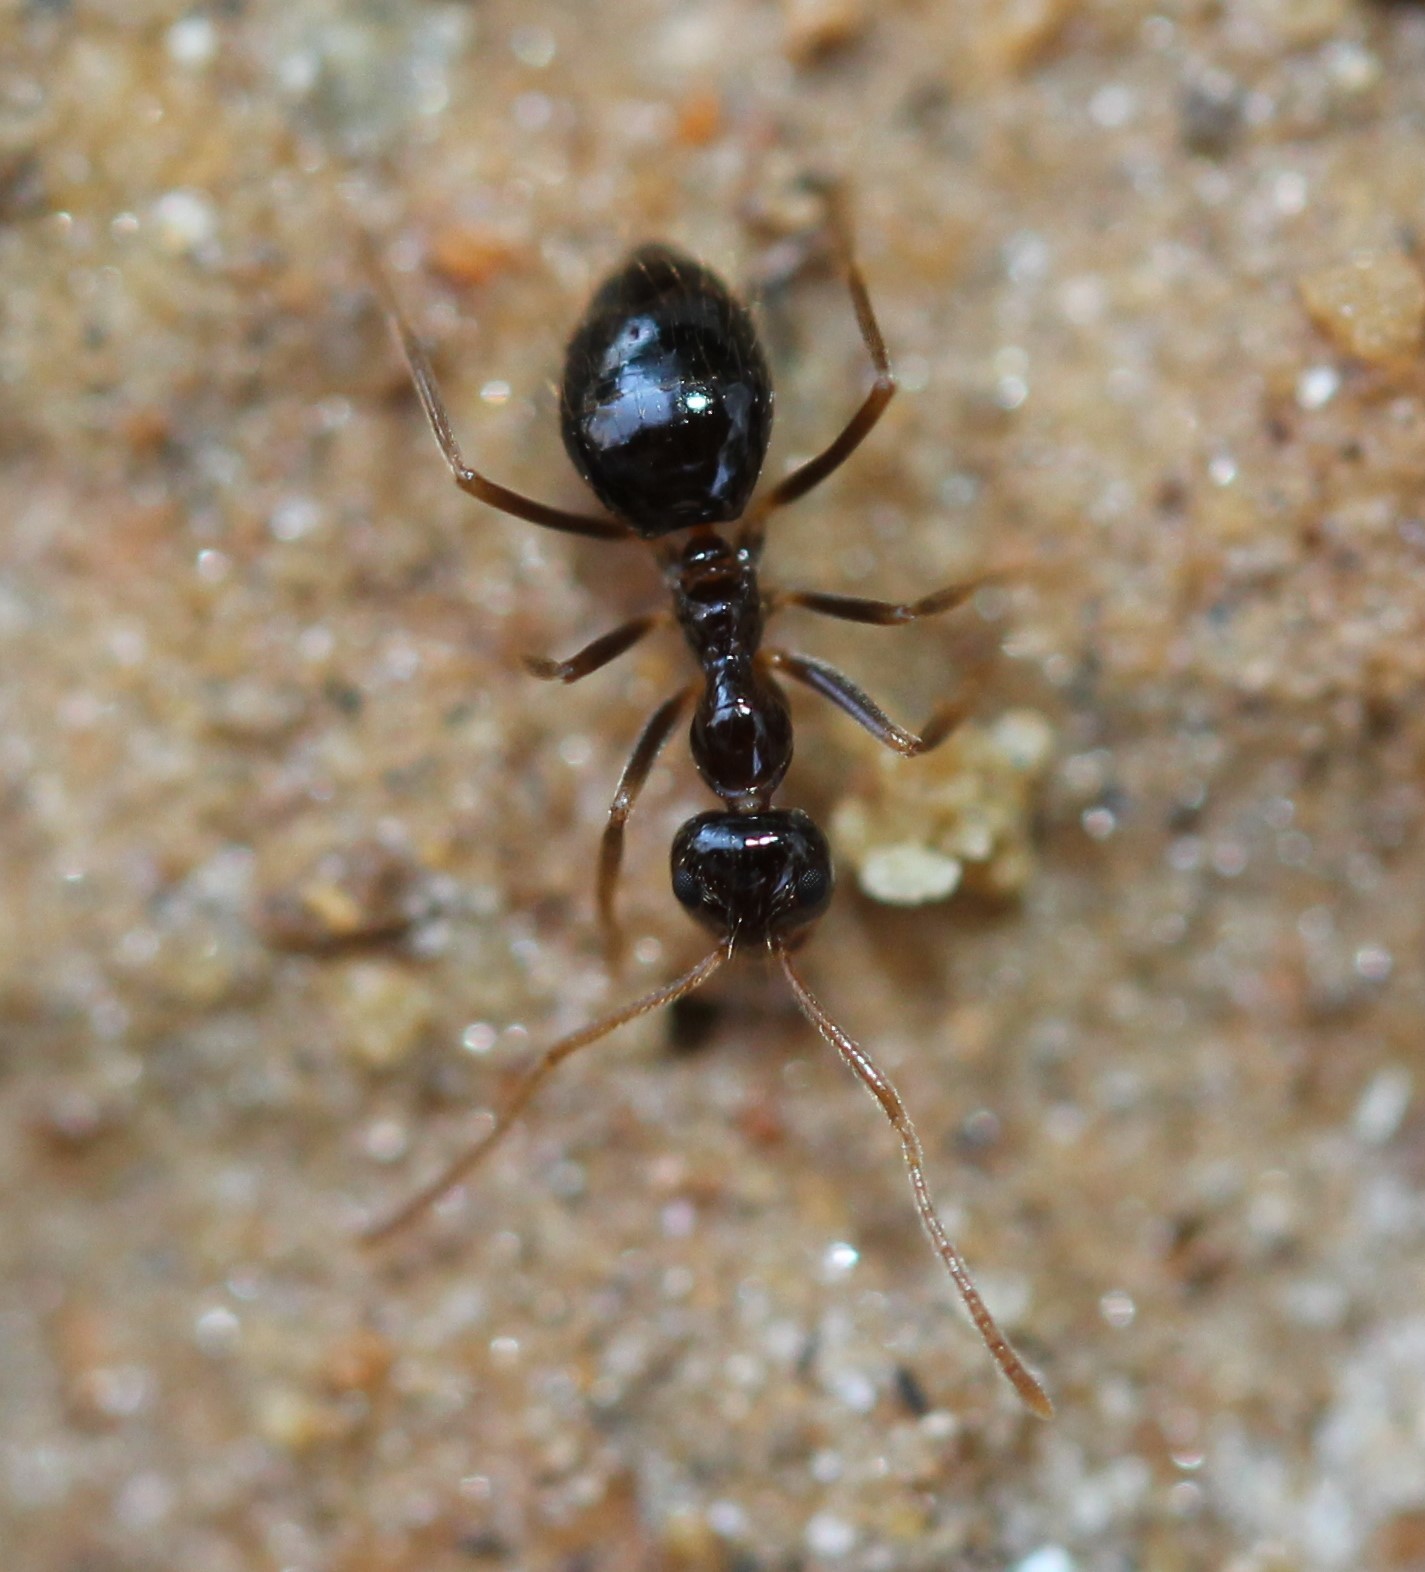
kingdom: Animalia
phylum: Arthropoda
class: Insecta
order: Hymenoptera
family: Formicidae
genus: Prenolepis
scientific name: Prenolepis imparis
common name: Small honey ant
